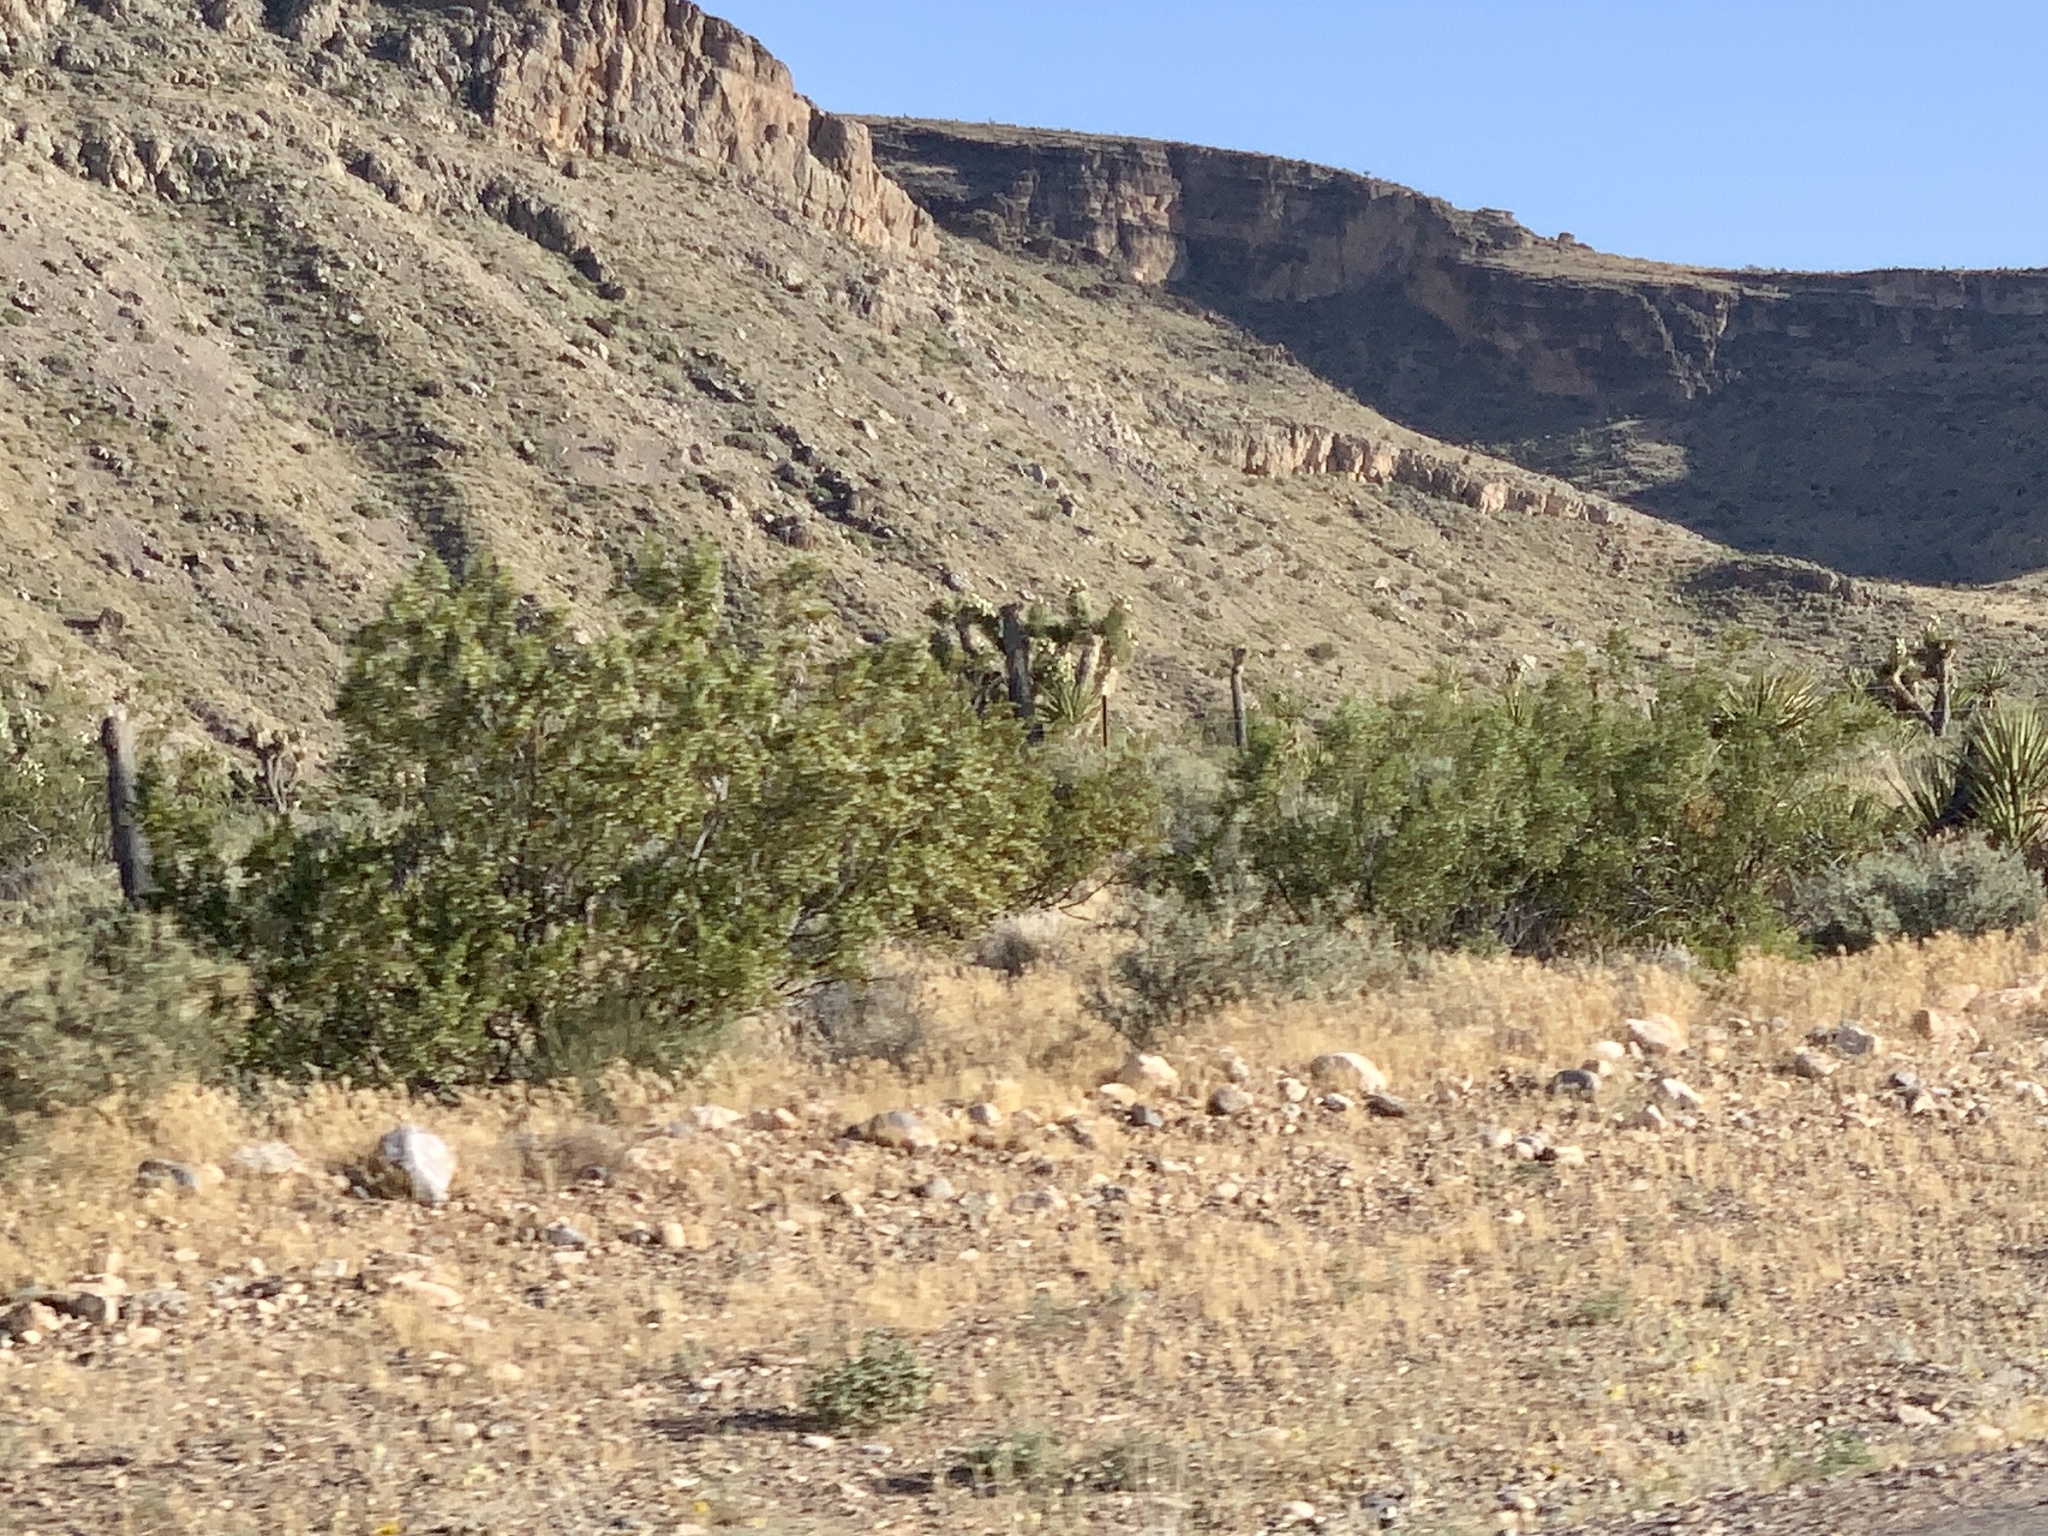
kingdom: Plantae
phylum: Tracheophyta
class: Magnoliopsida
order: Zygophyllales
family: Zygophyllaceae
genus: Larrea
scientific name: Larrea tridentata
